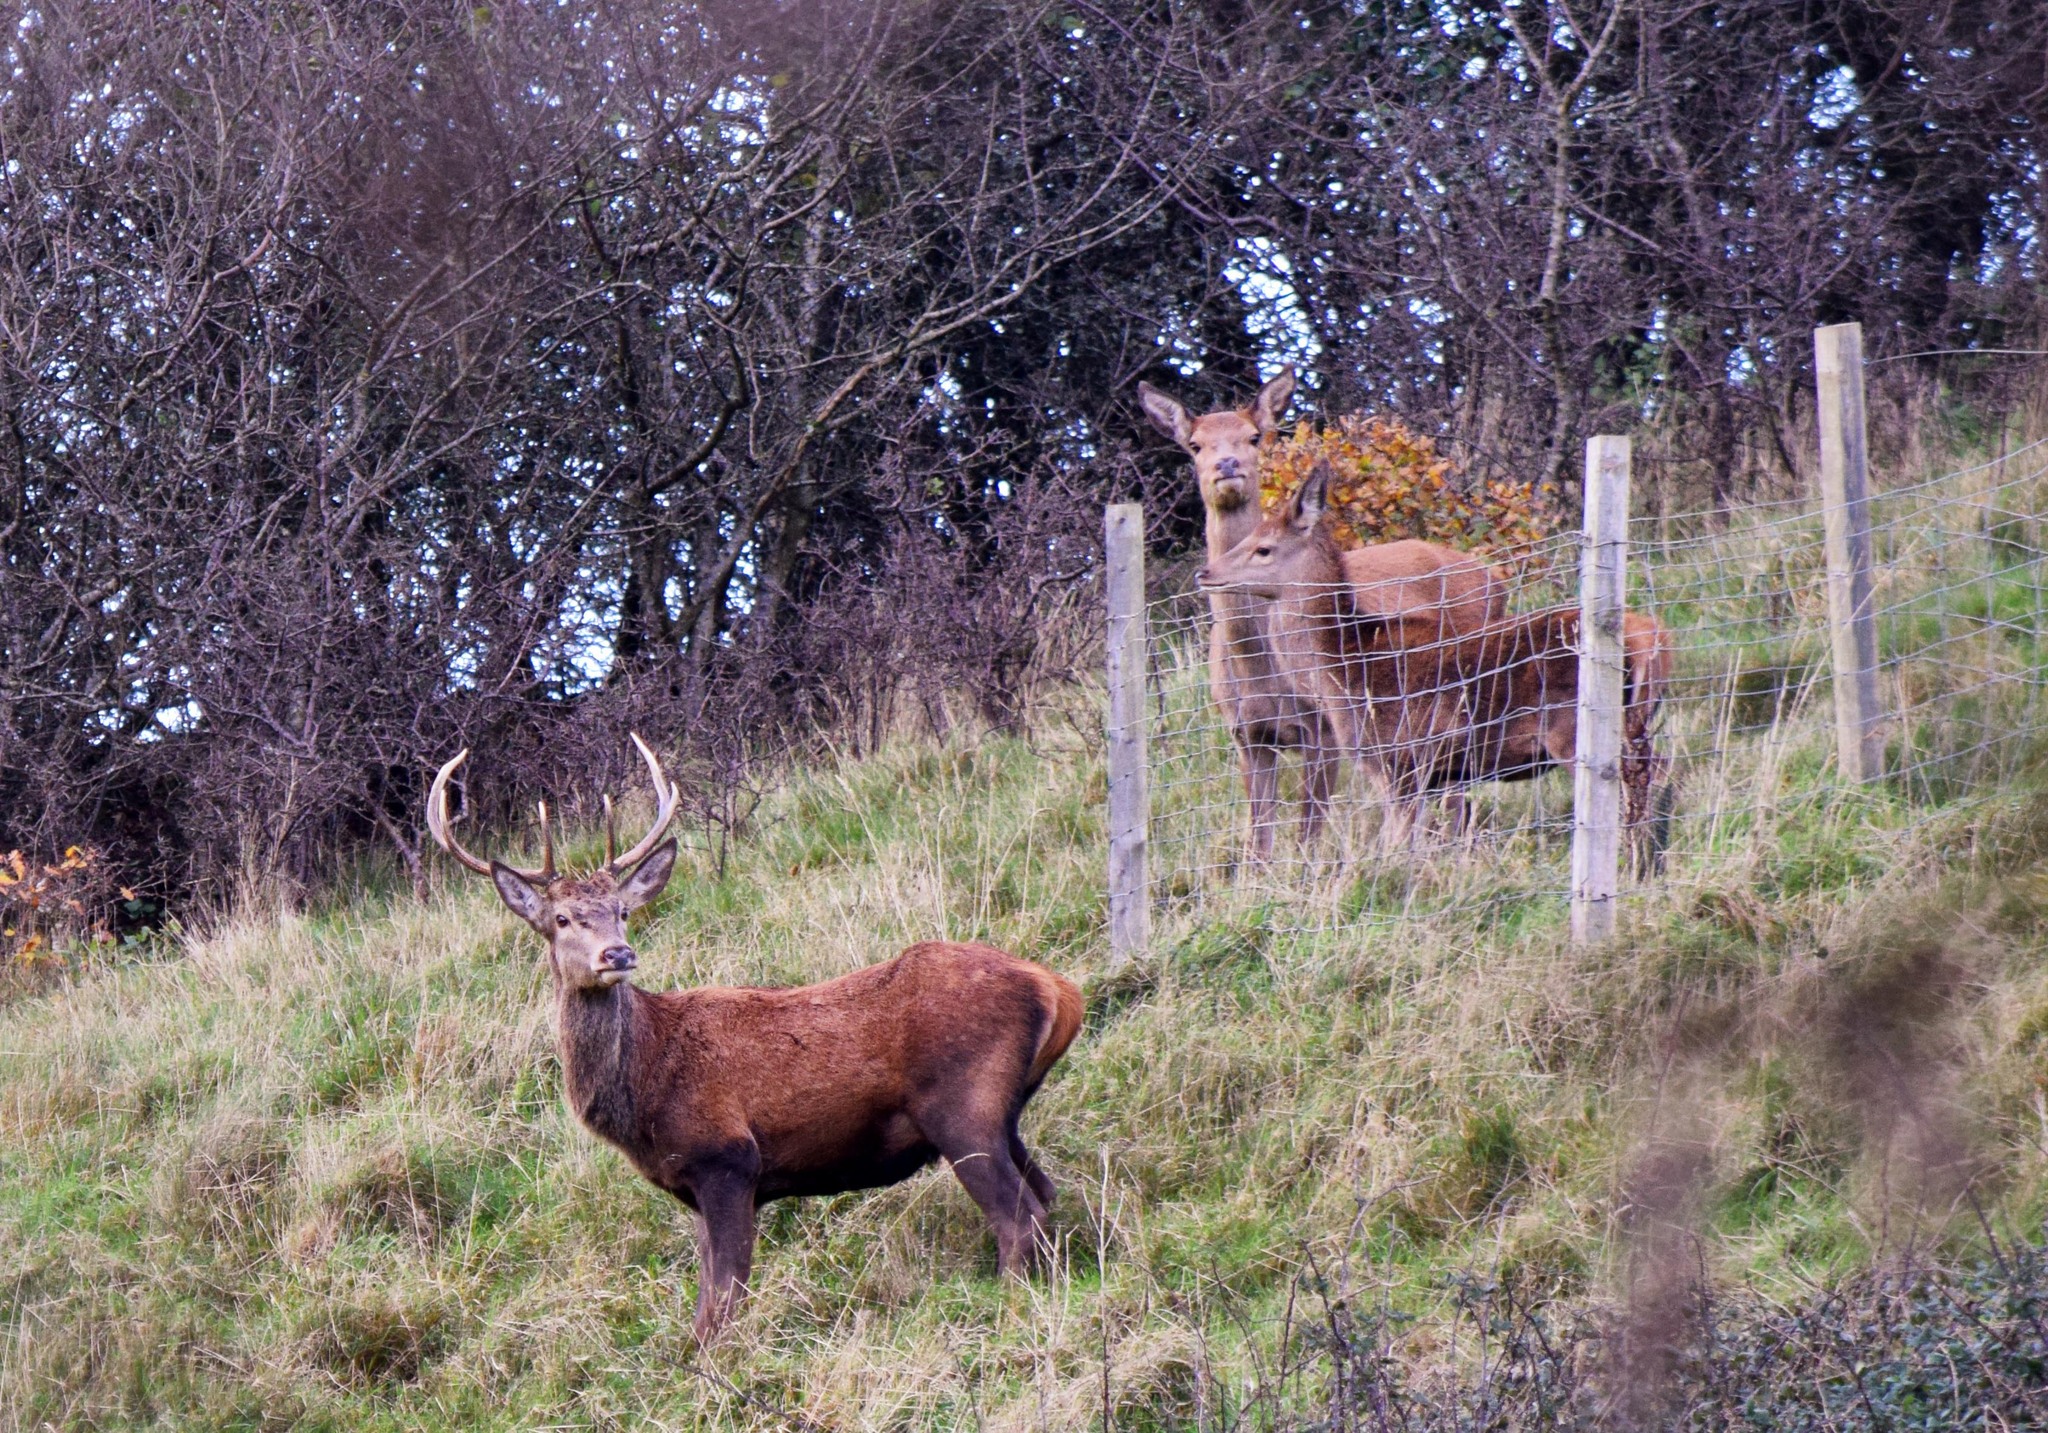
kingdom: Animalia
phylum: Chordata
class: Mammalia
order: Artiodactyla
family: Cervidae
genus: Cervus
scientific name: Cervus elaphus
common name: Red deer
